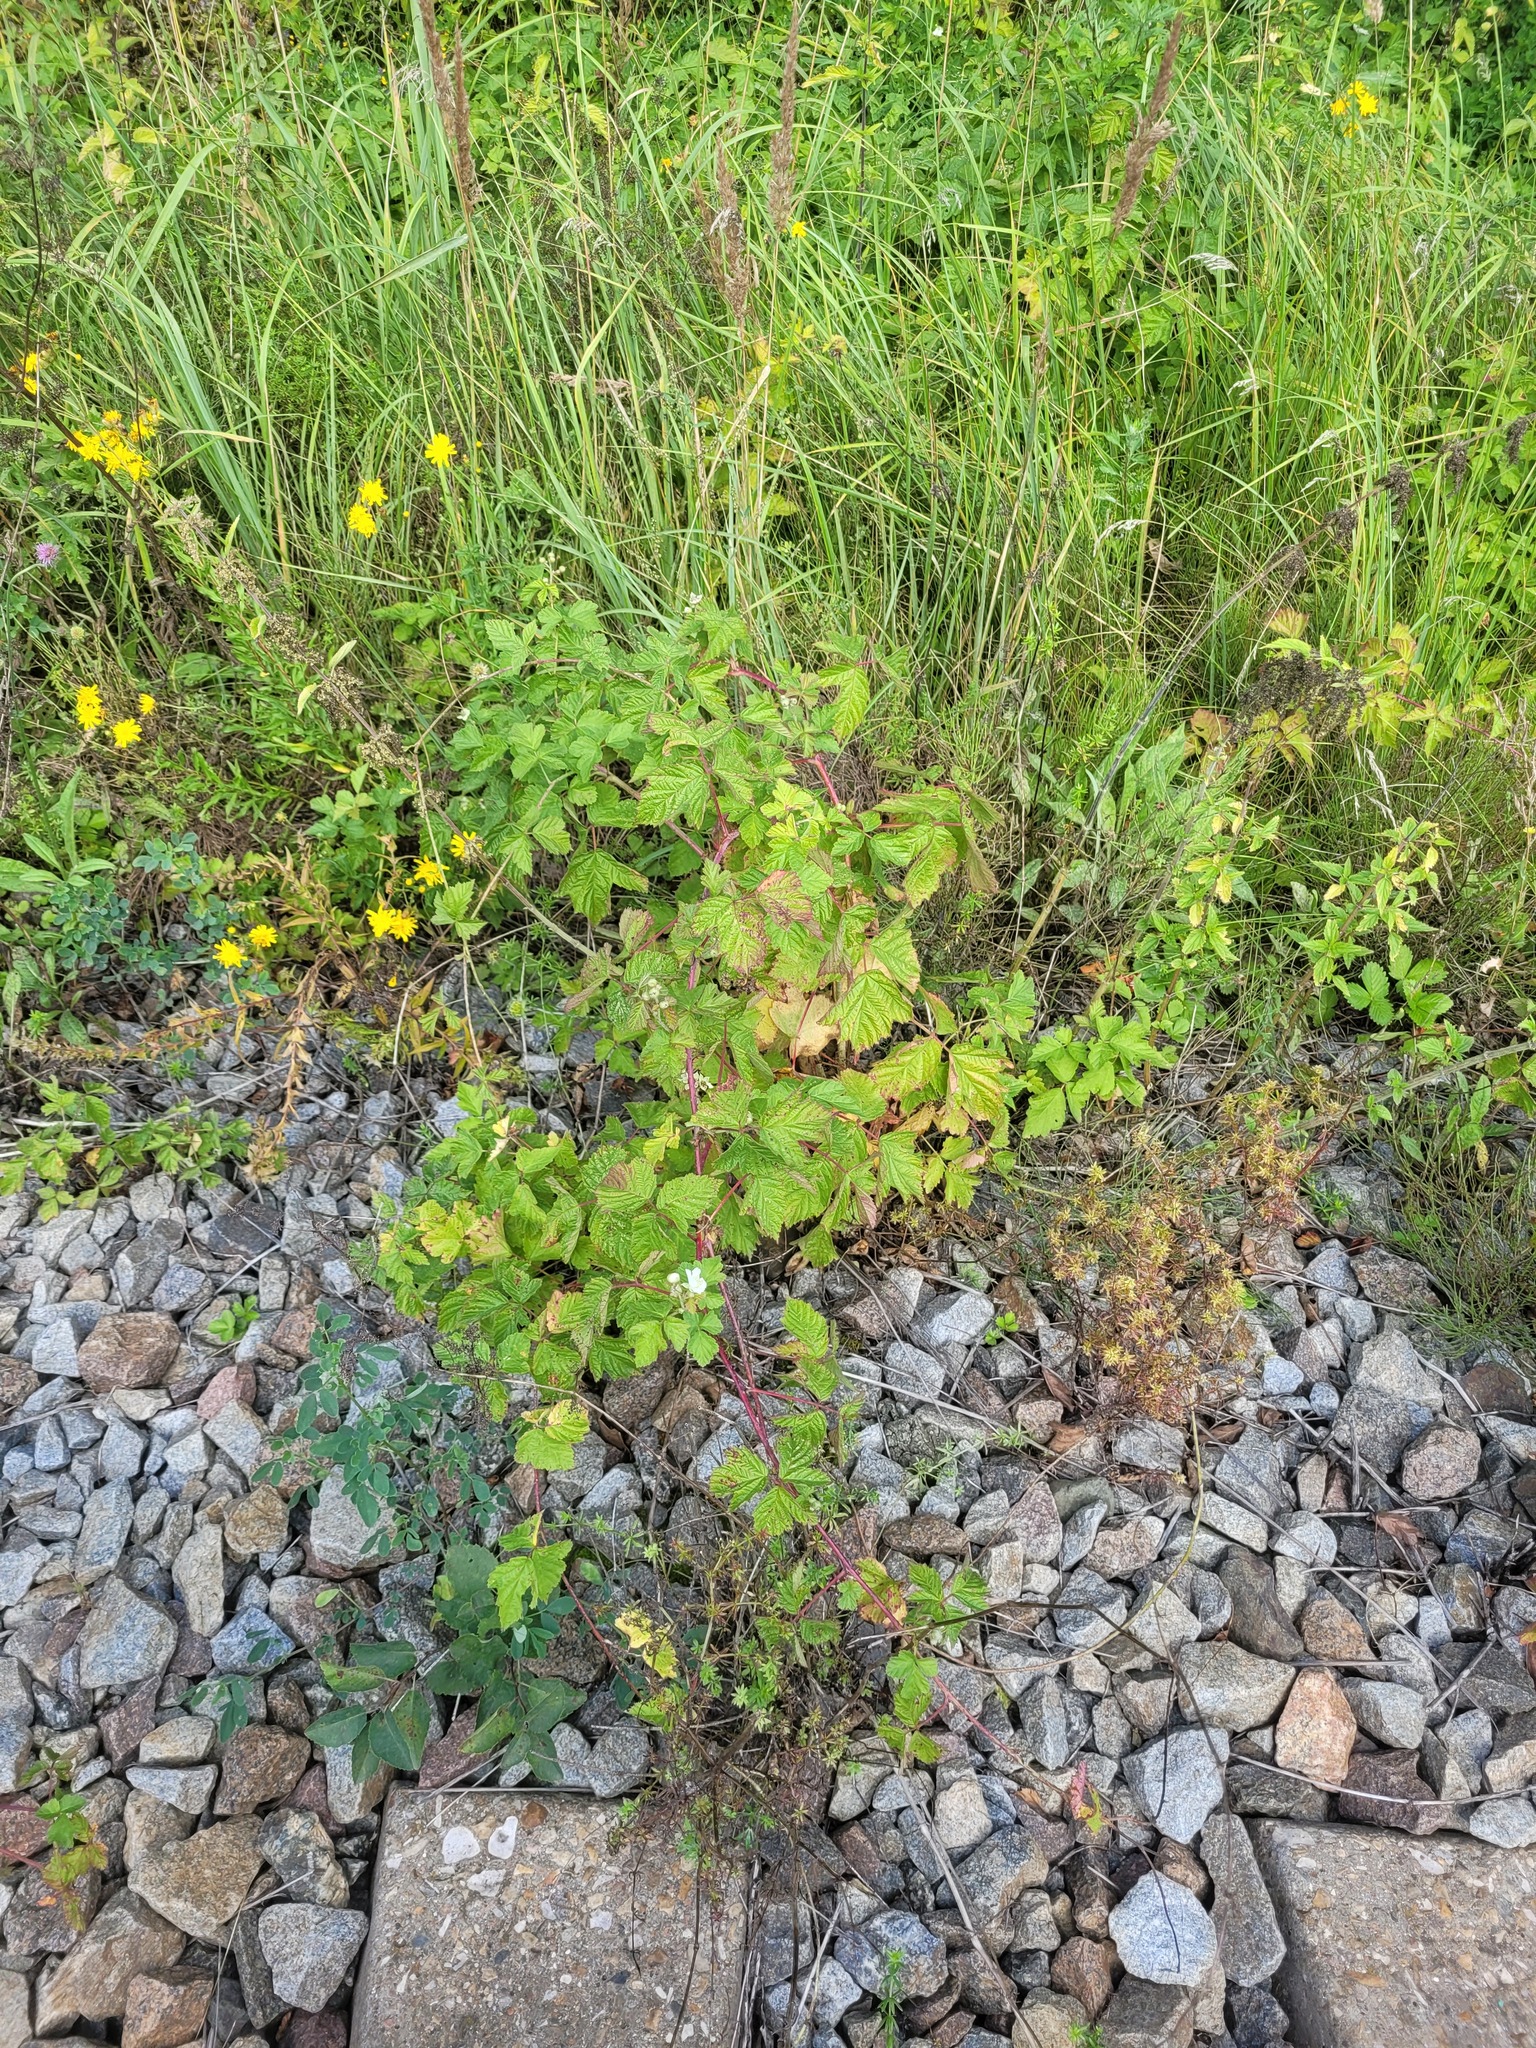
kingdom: Plantae
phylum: Tracheophyta
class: Magnoliopsida
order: Rosales
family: Rosaceae
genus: Rubus
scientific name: Rubus caesius
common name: Dewberry
